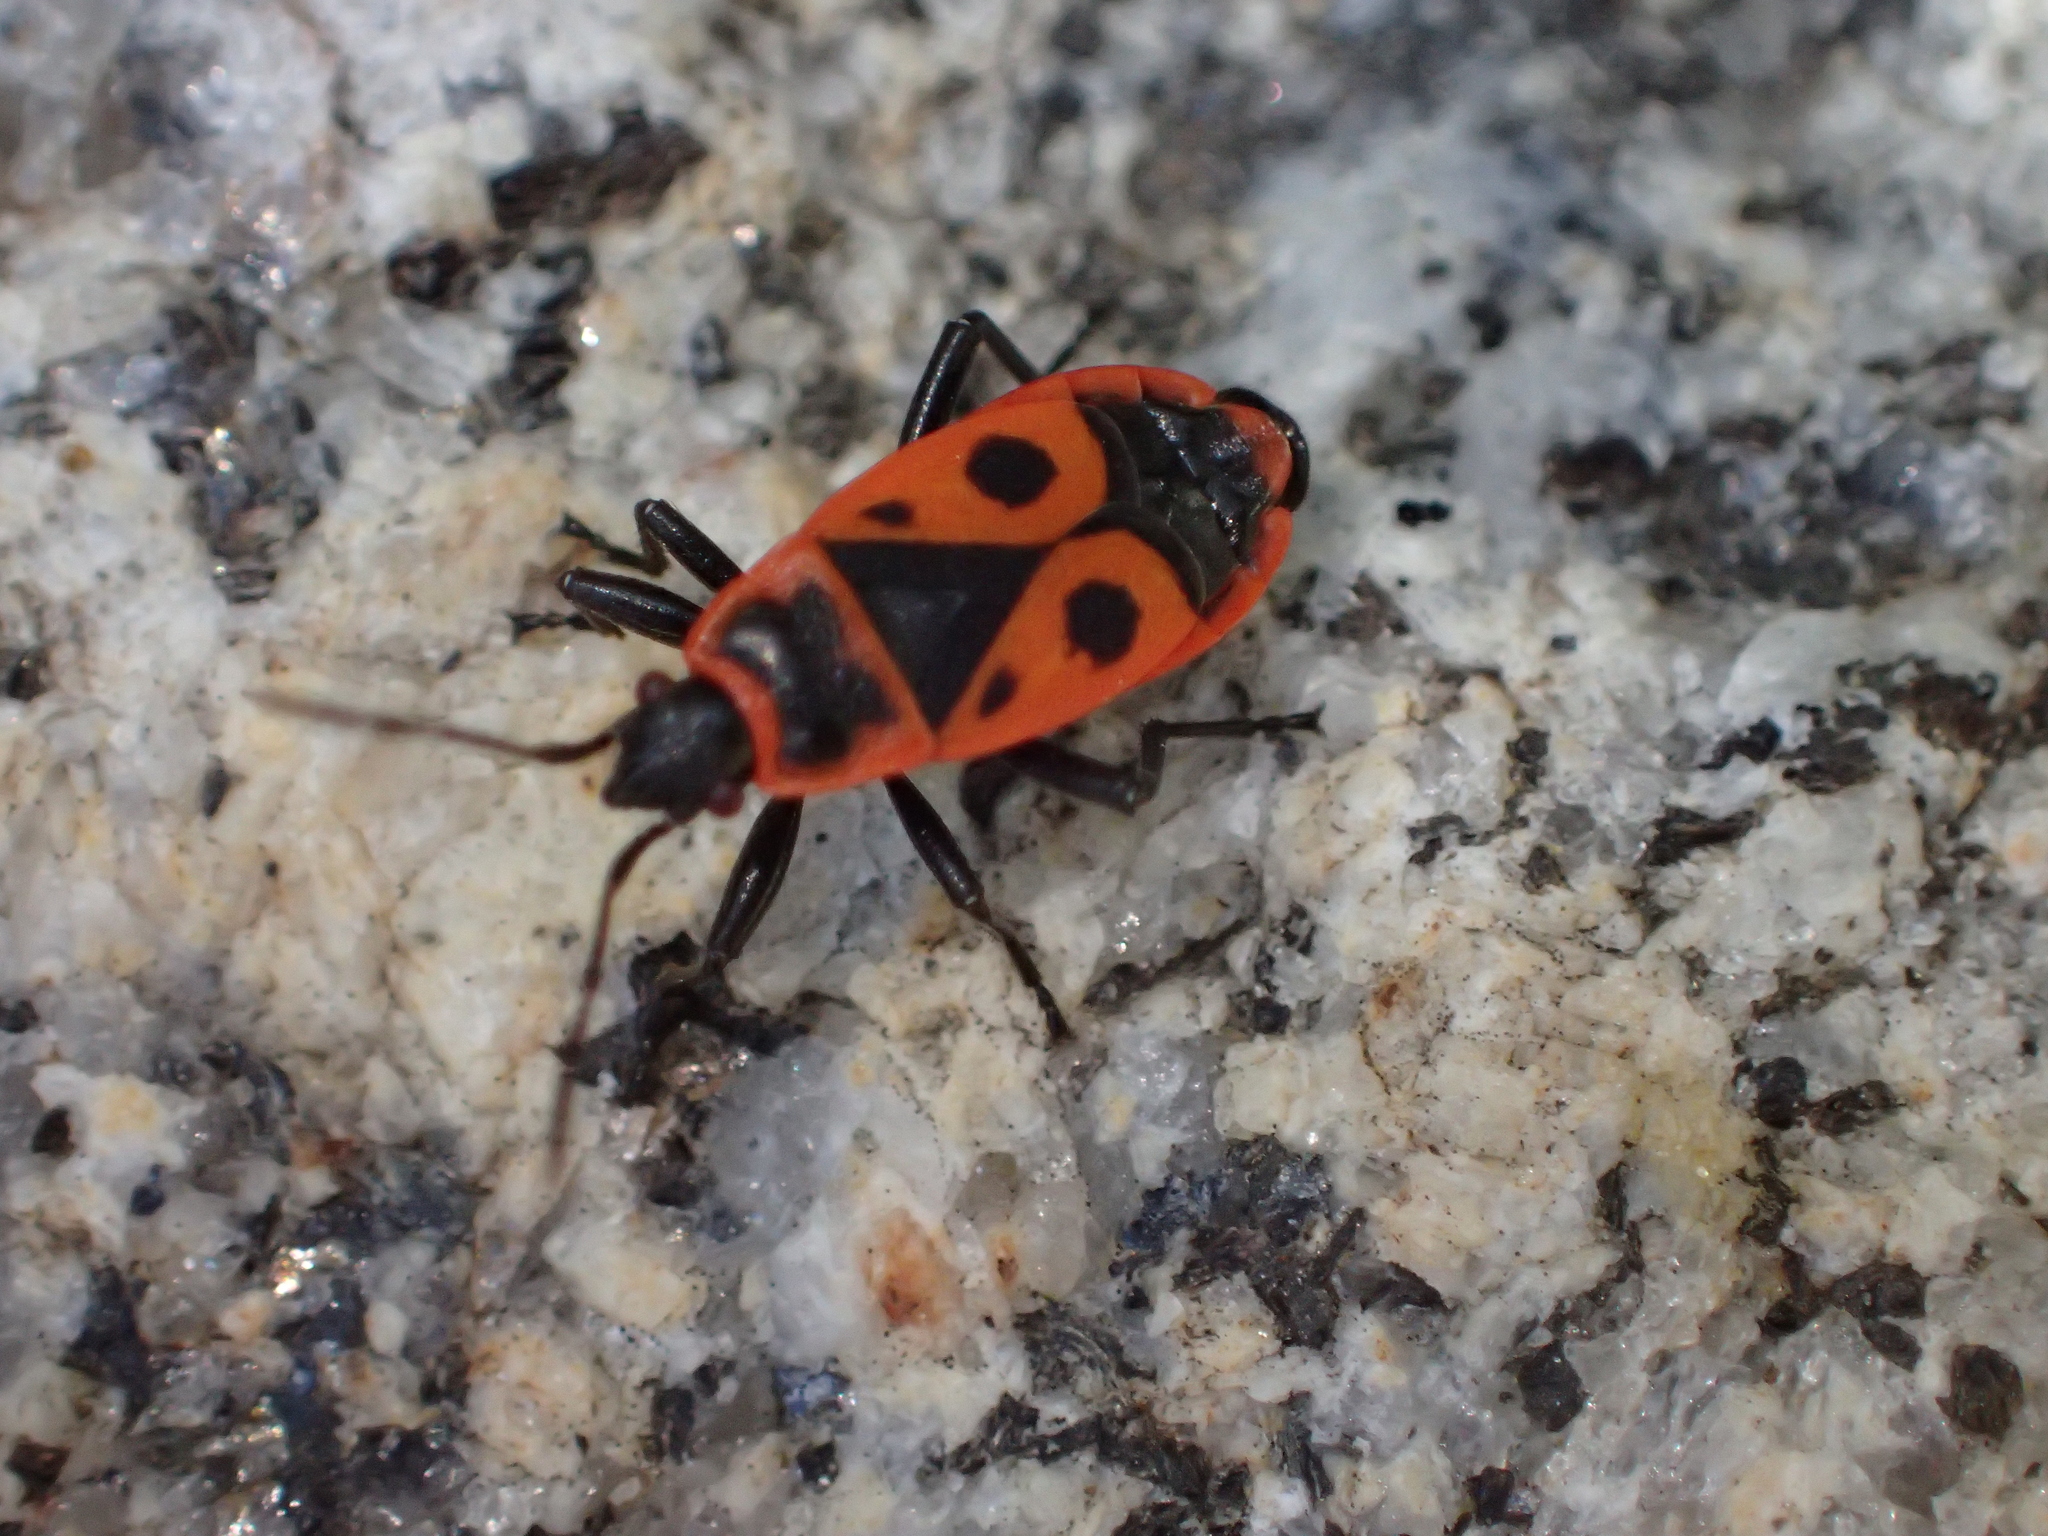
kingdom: Animalia
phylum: Arthropoda
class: Insecta
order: Hemiptera
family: Pyrrhocoridae
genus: Pyrrhocoris
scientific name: Pyrrhocoris apterus
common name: Firebug
